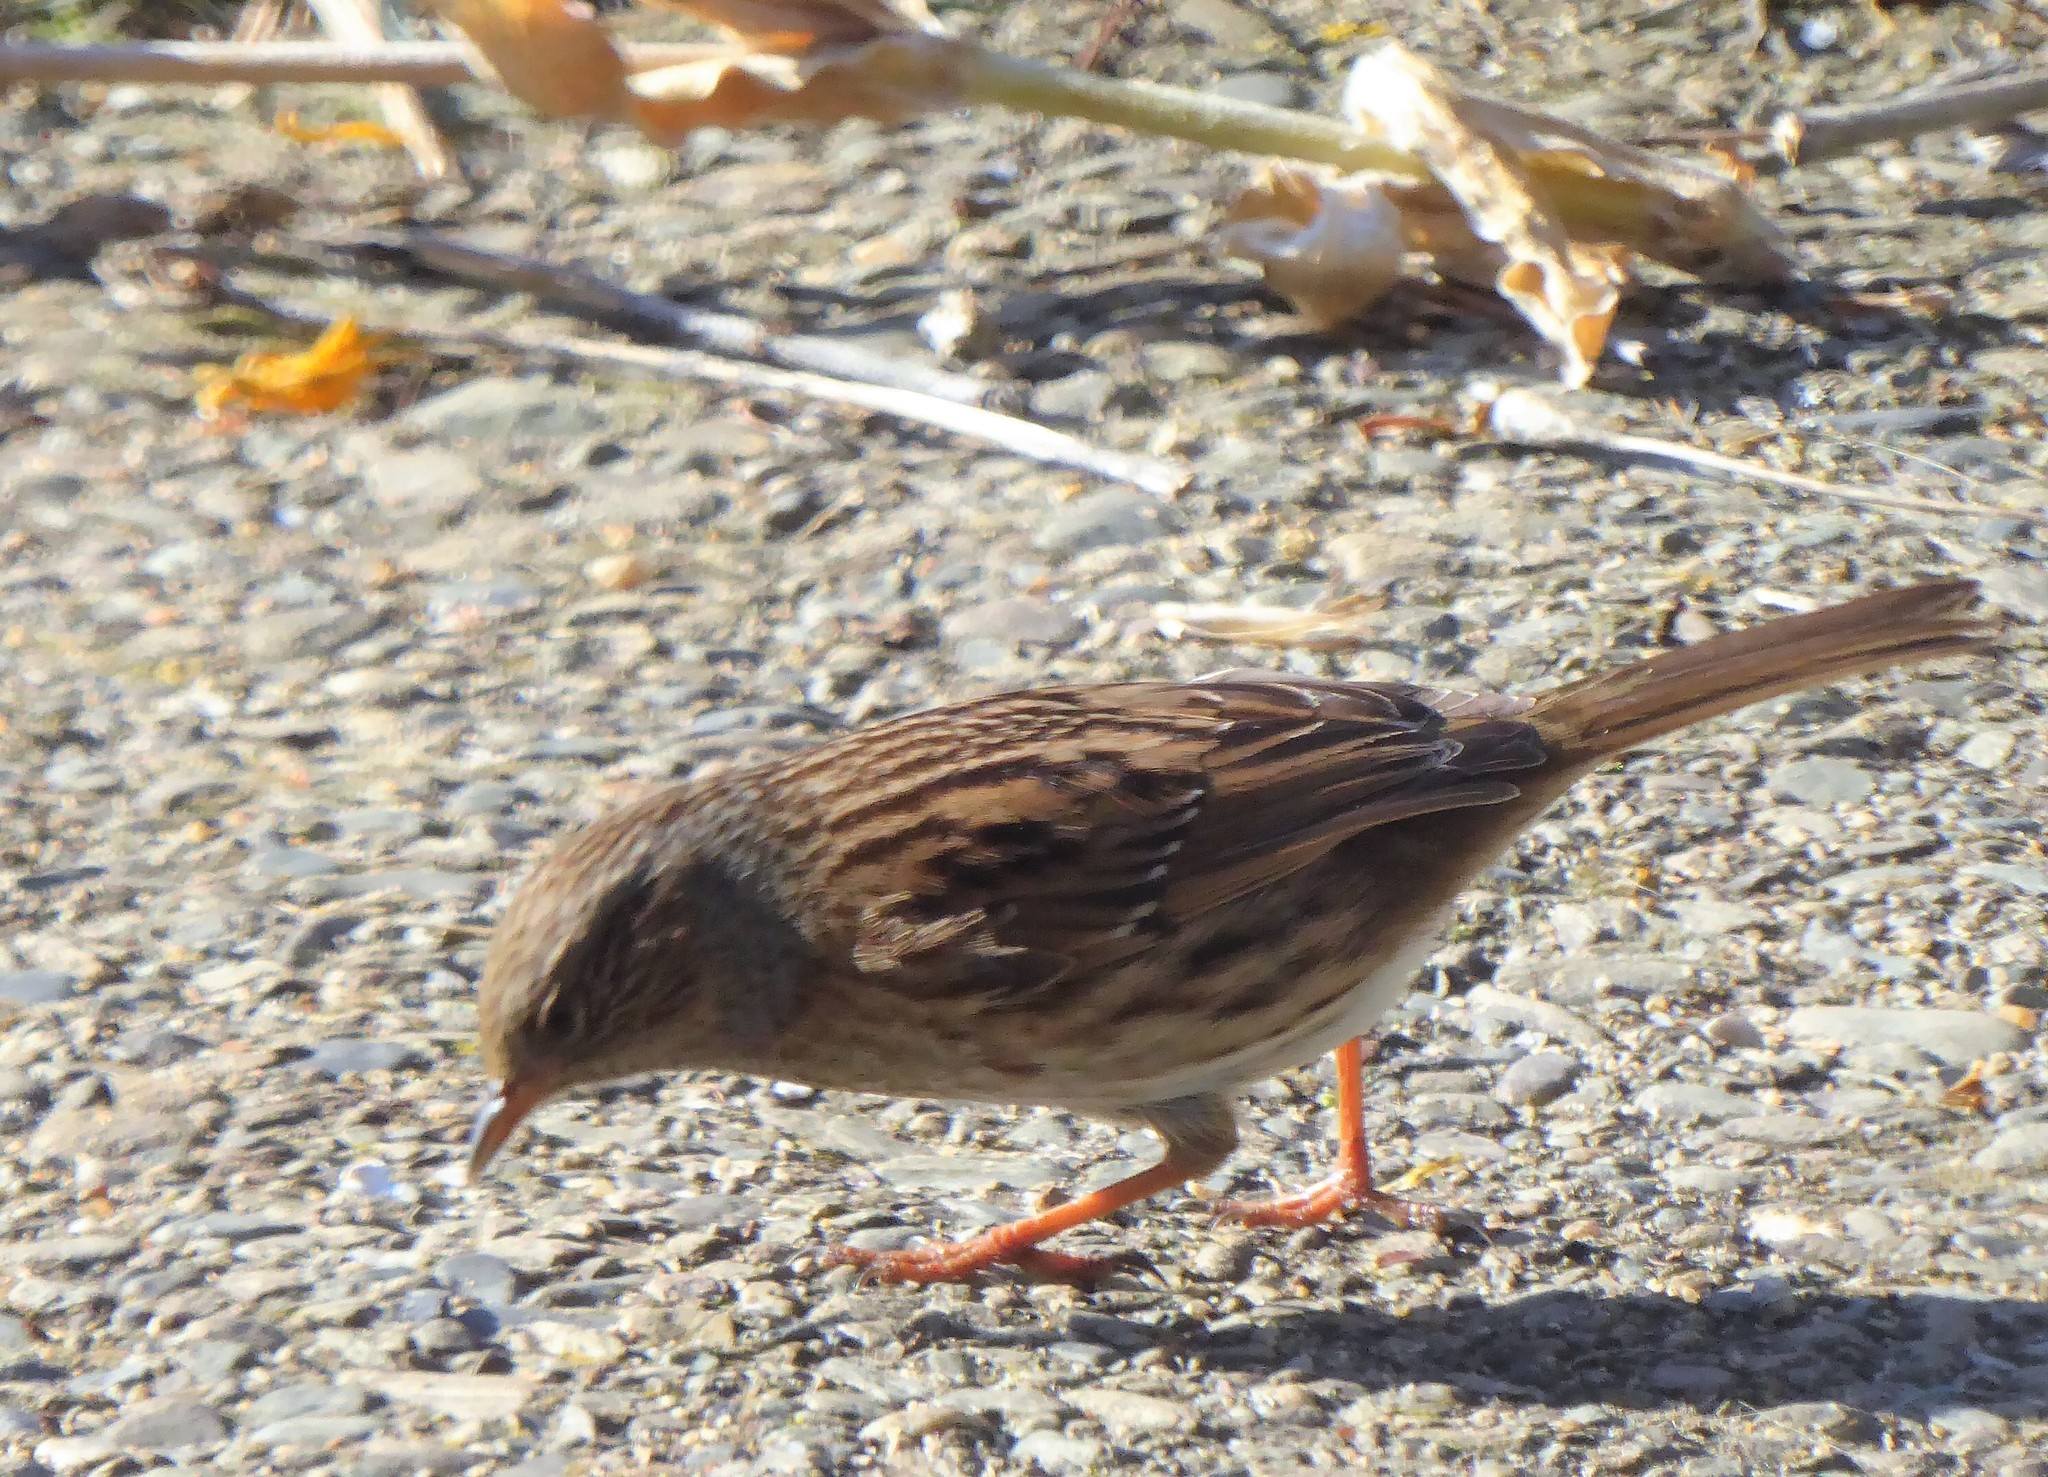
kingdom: Animalia
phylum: Chordata
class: Aves
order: Passeriformes
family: Prunellidae
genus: Prunella
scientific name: Prunella modularis
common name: Dunnock
